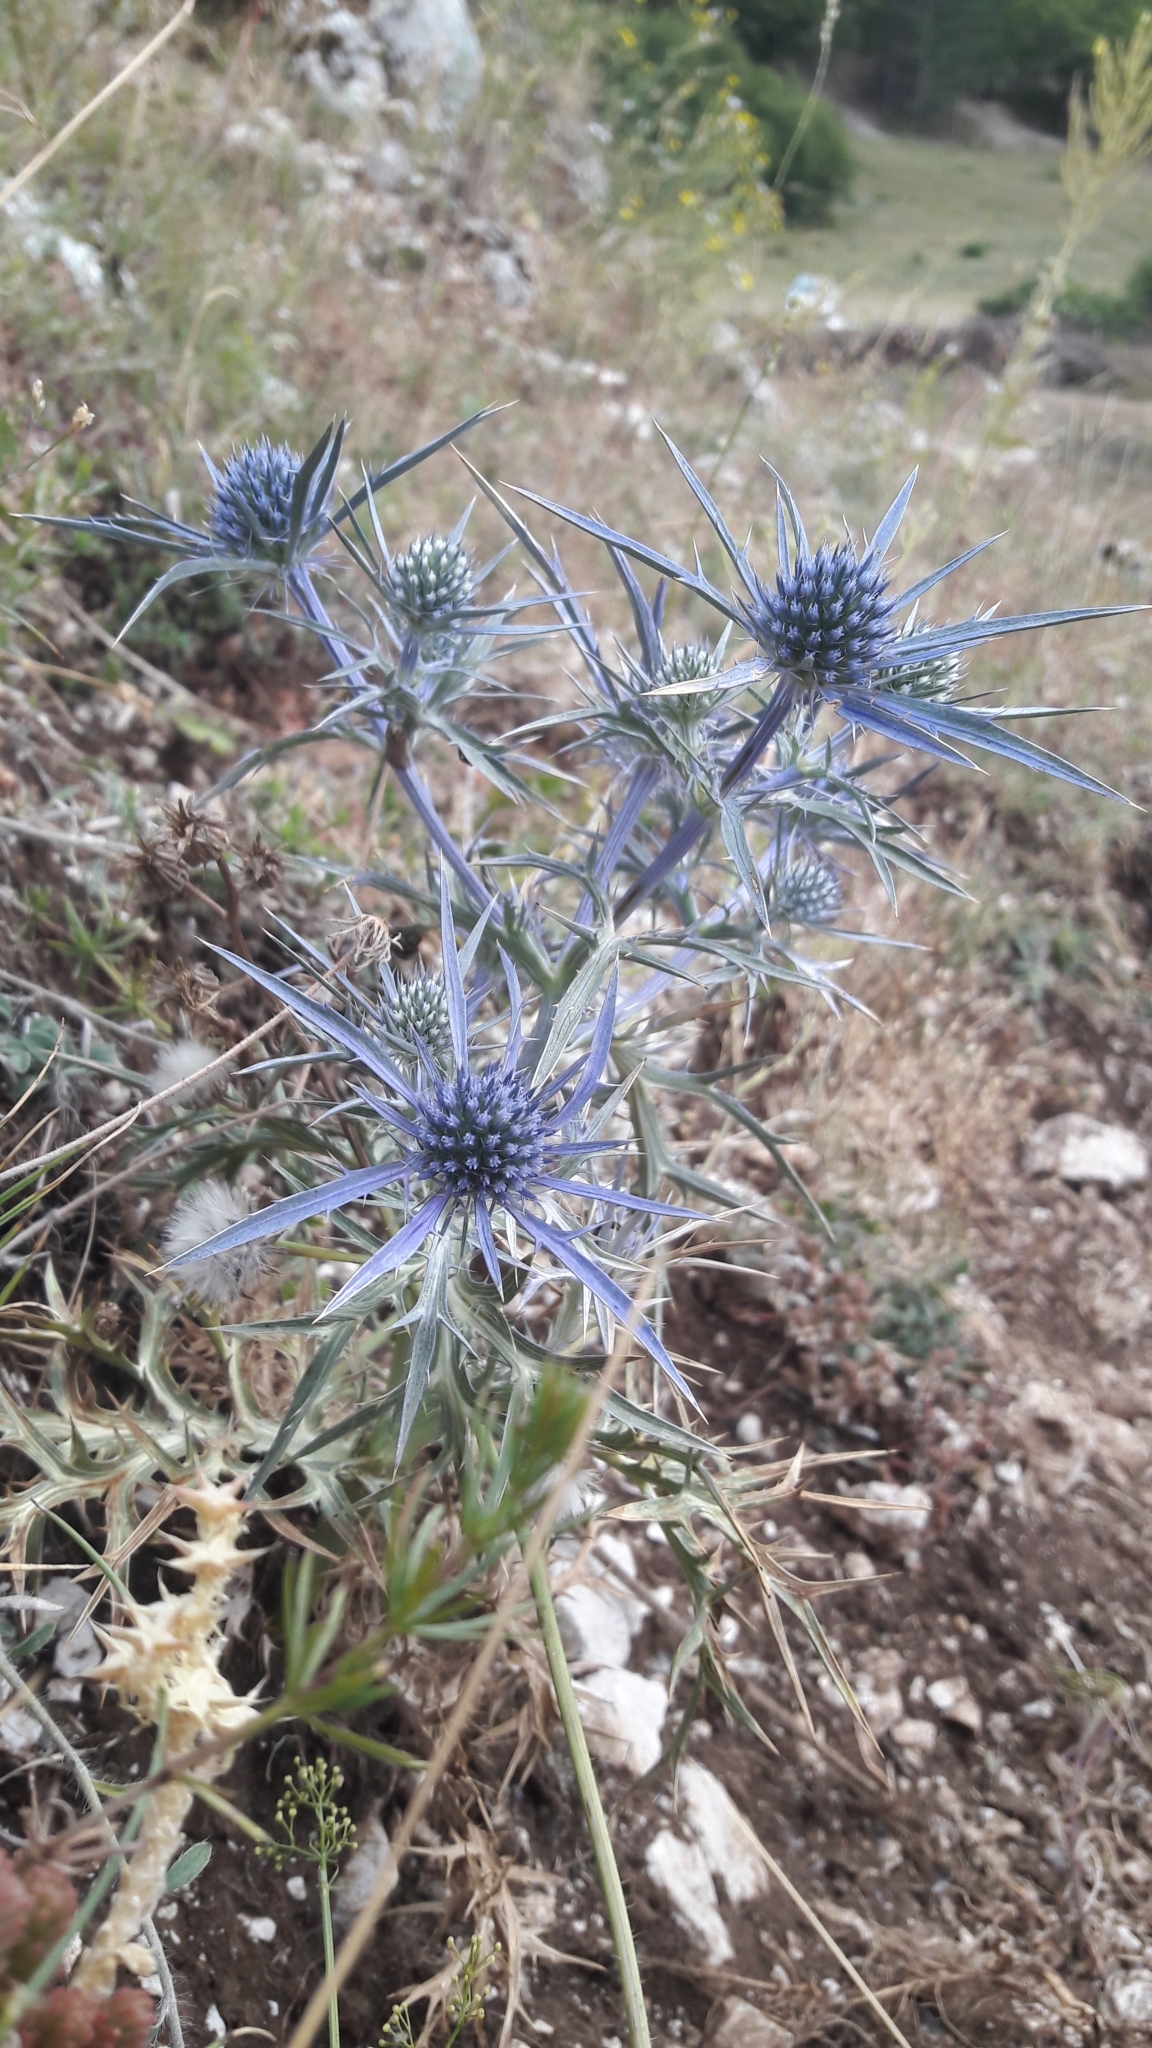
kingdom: Plantae
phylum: Tracheophyta
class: Magnoliopsida
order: Apiales
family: Apiaceae
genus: Eryngium
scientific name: Eryngium amethystinum
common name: Amethyst eryngo
